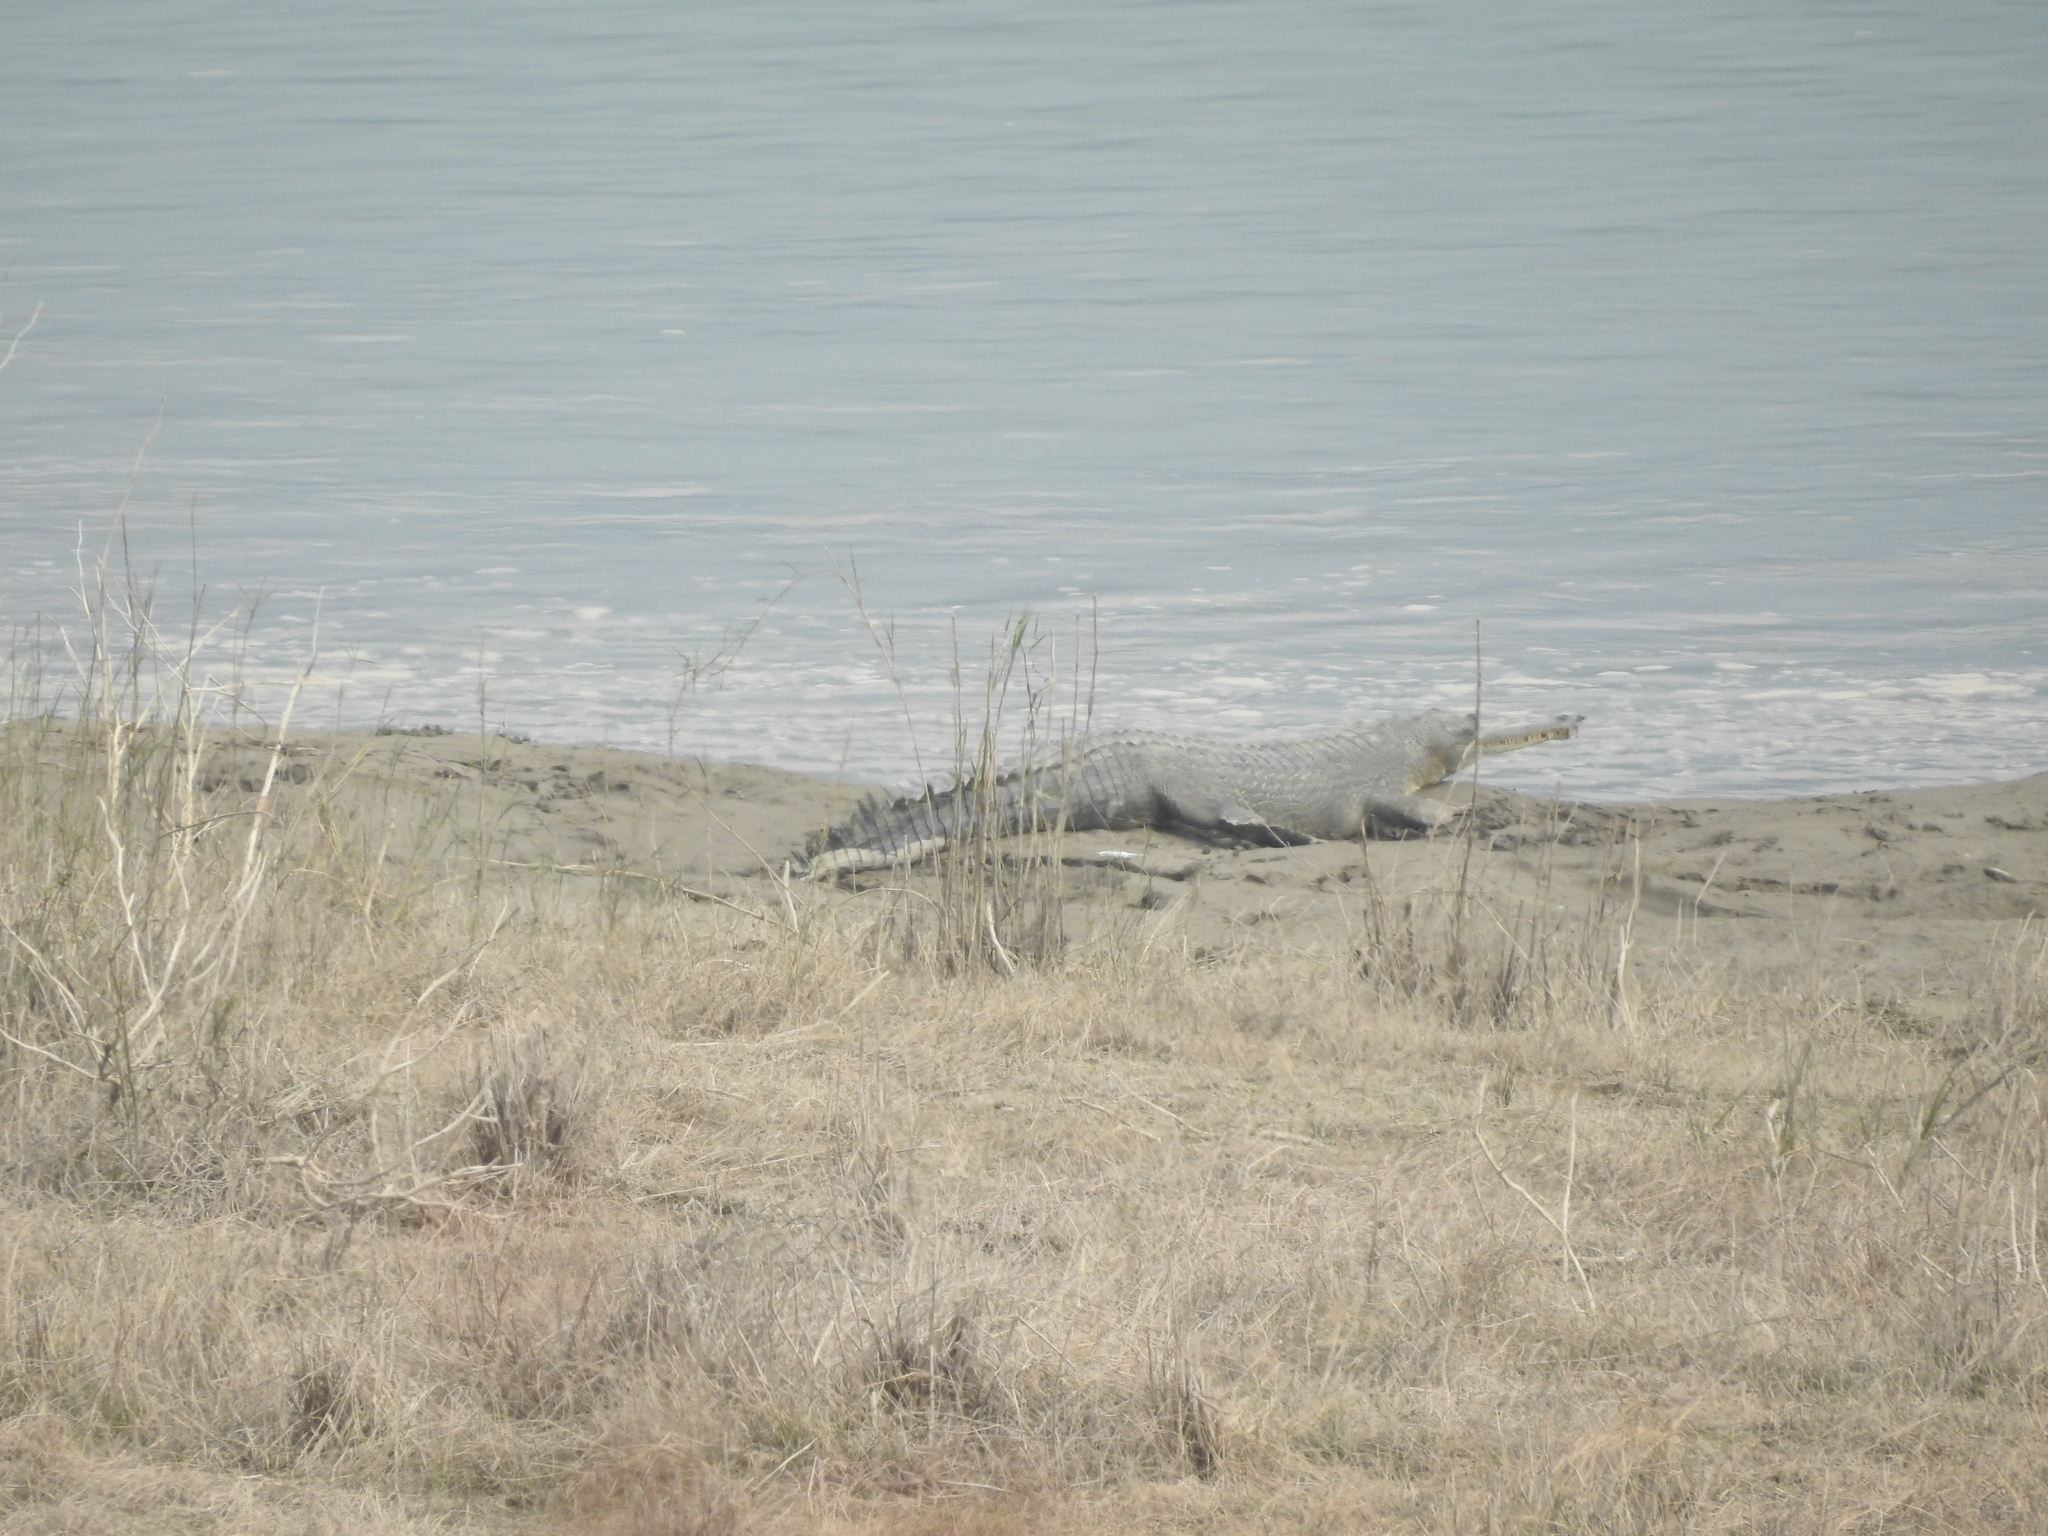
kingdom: Animalia
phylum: Chordata
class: Crocodylia
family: Gavialidae
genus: Gavialis
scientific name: Gavialis gangeticus
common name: Gharial
